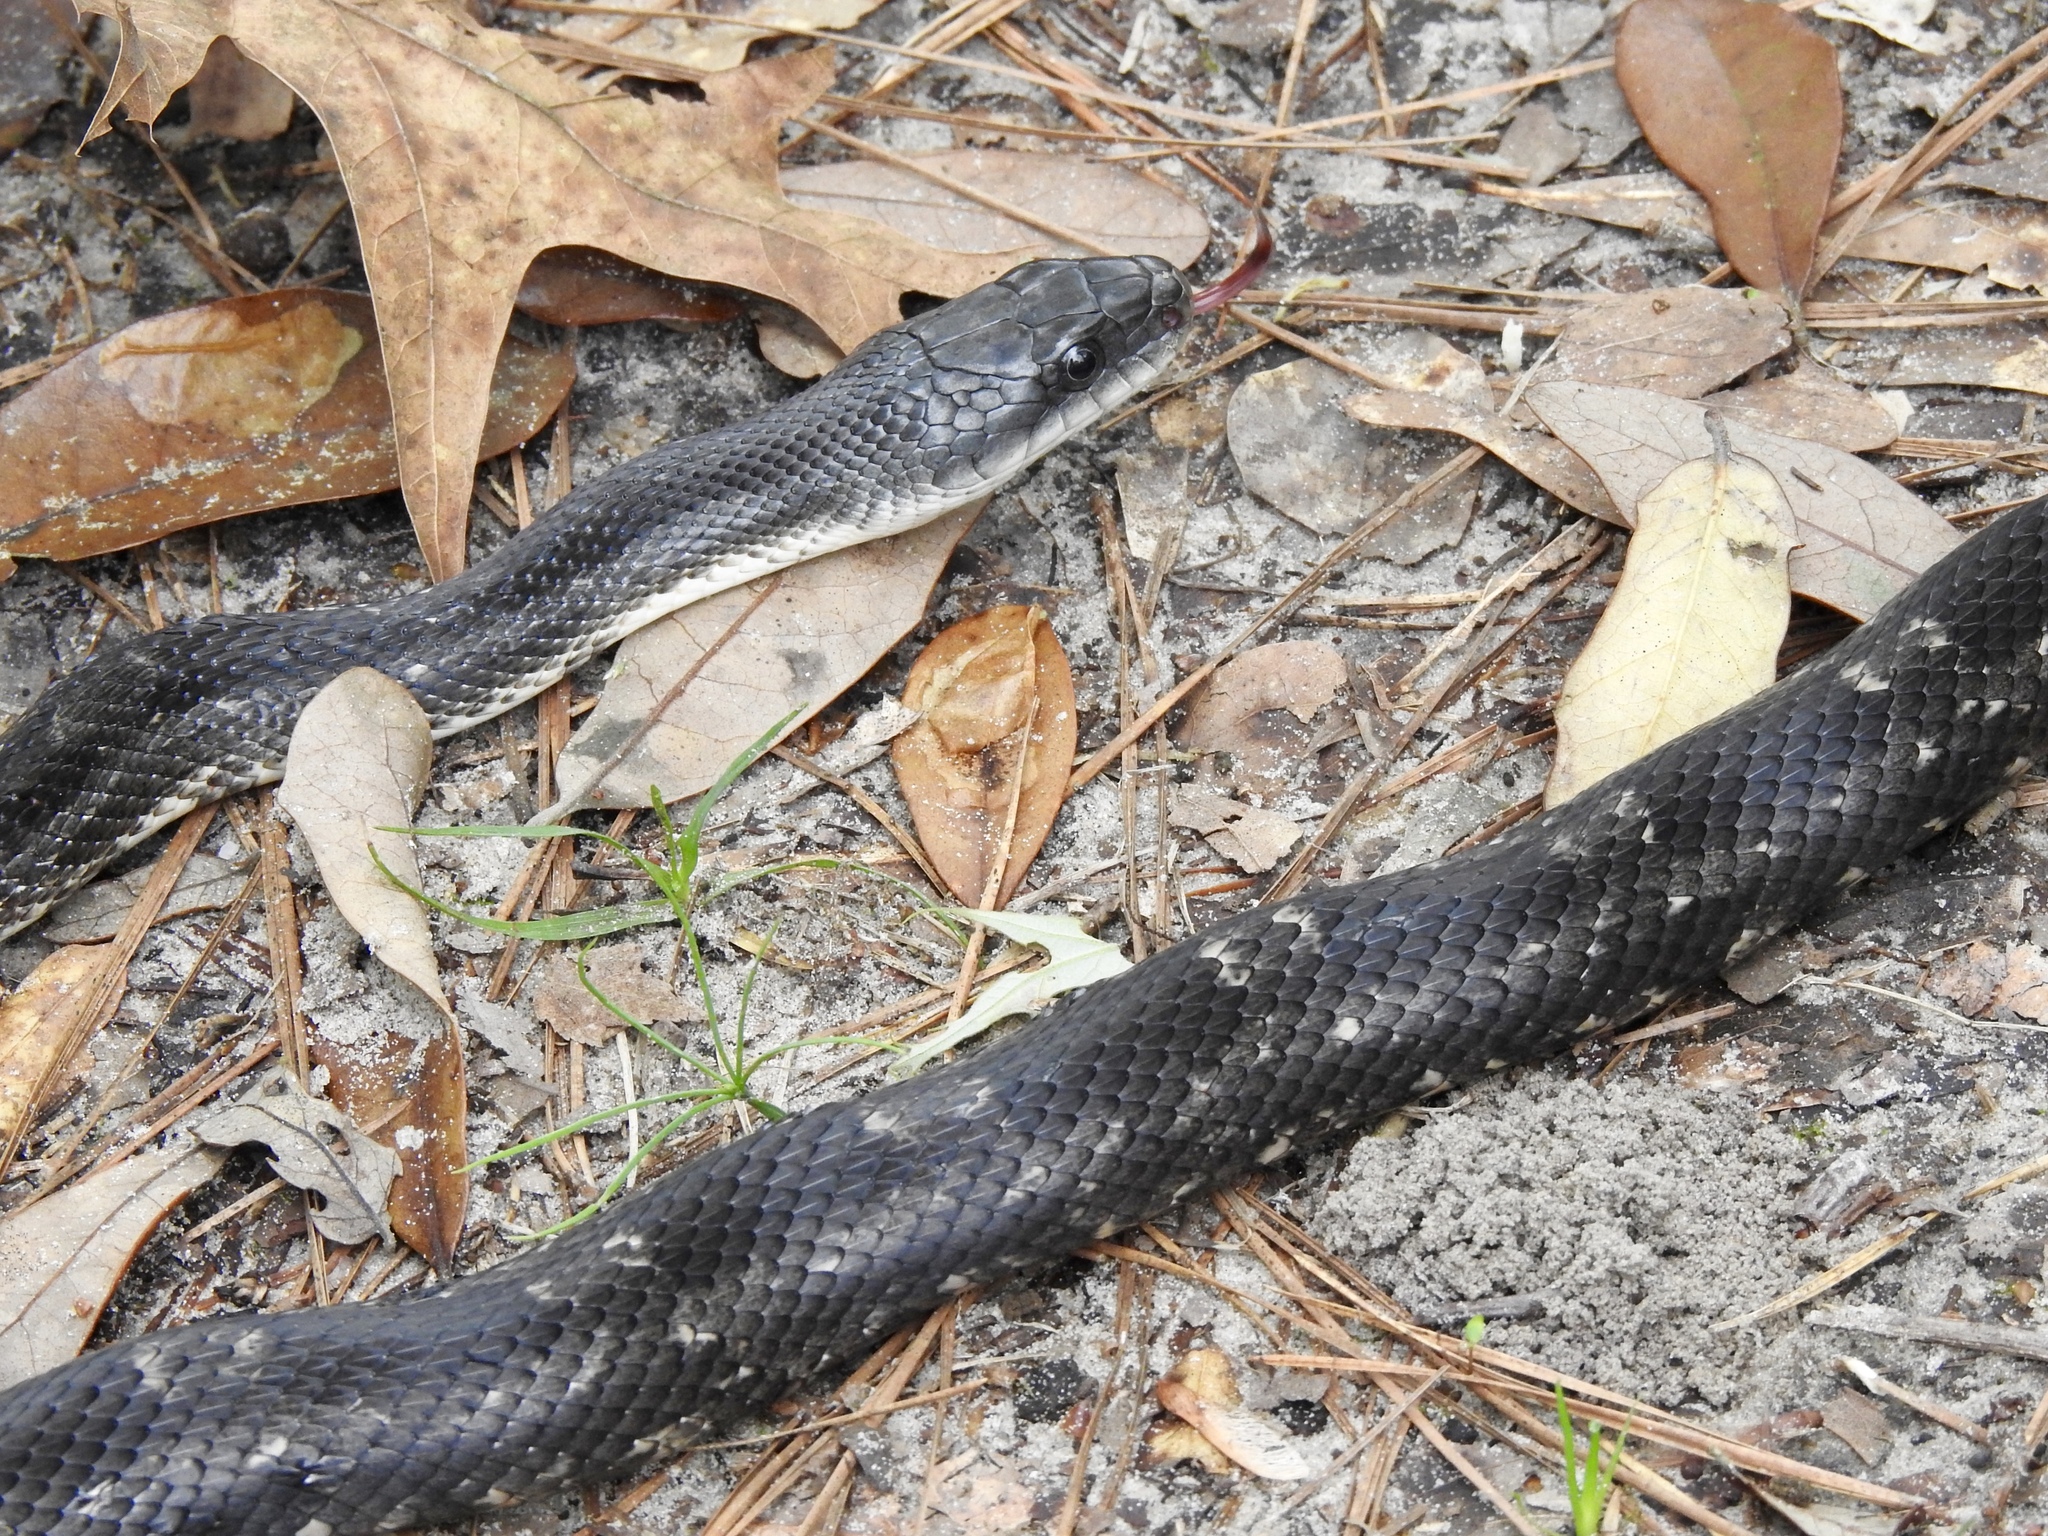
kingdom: Animalia
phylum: Chordata
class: Squamata
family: Colubridae
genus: Pantherophis
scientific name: Pantherophis obsoletus
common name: Black rat snake
